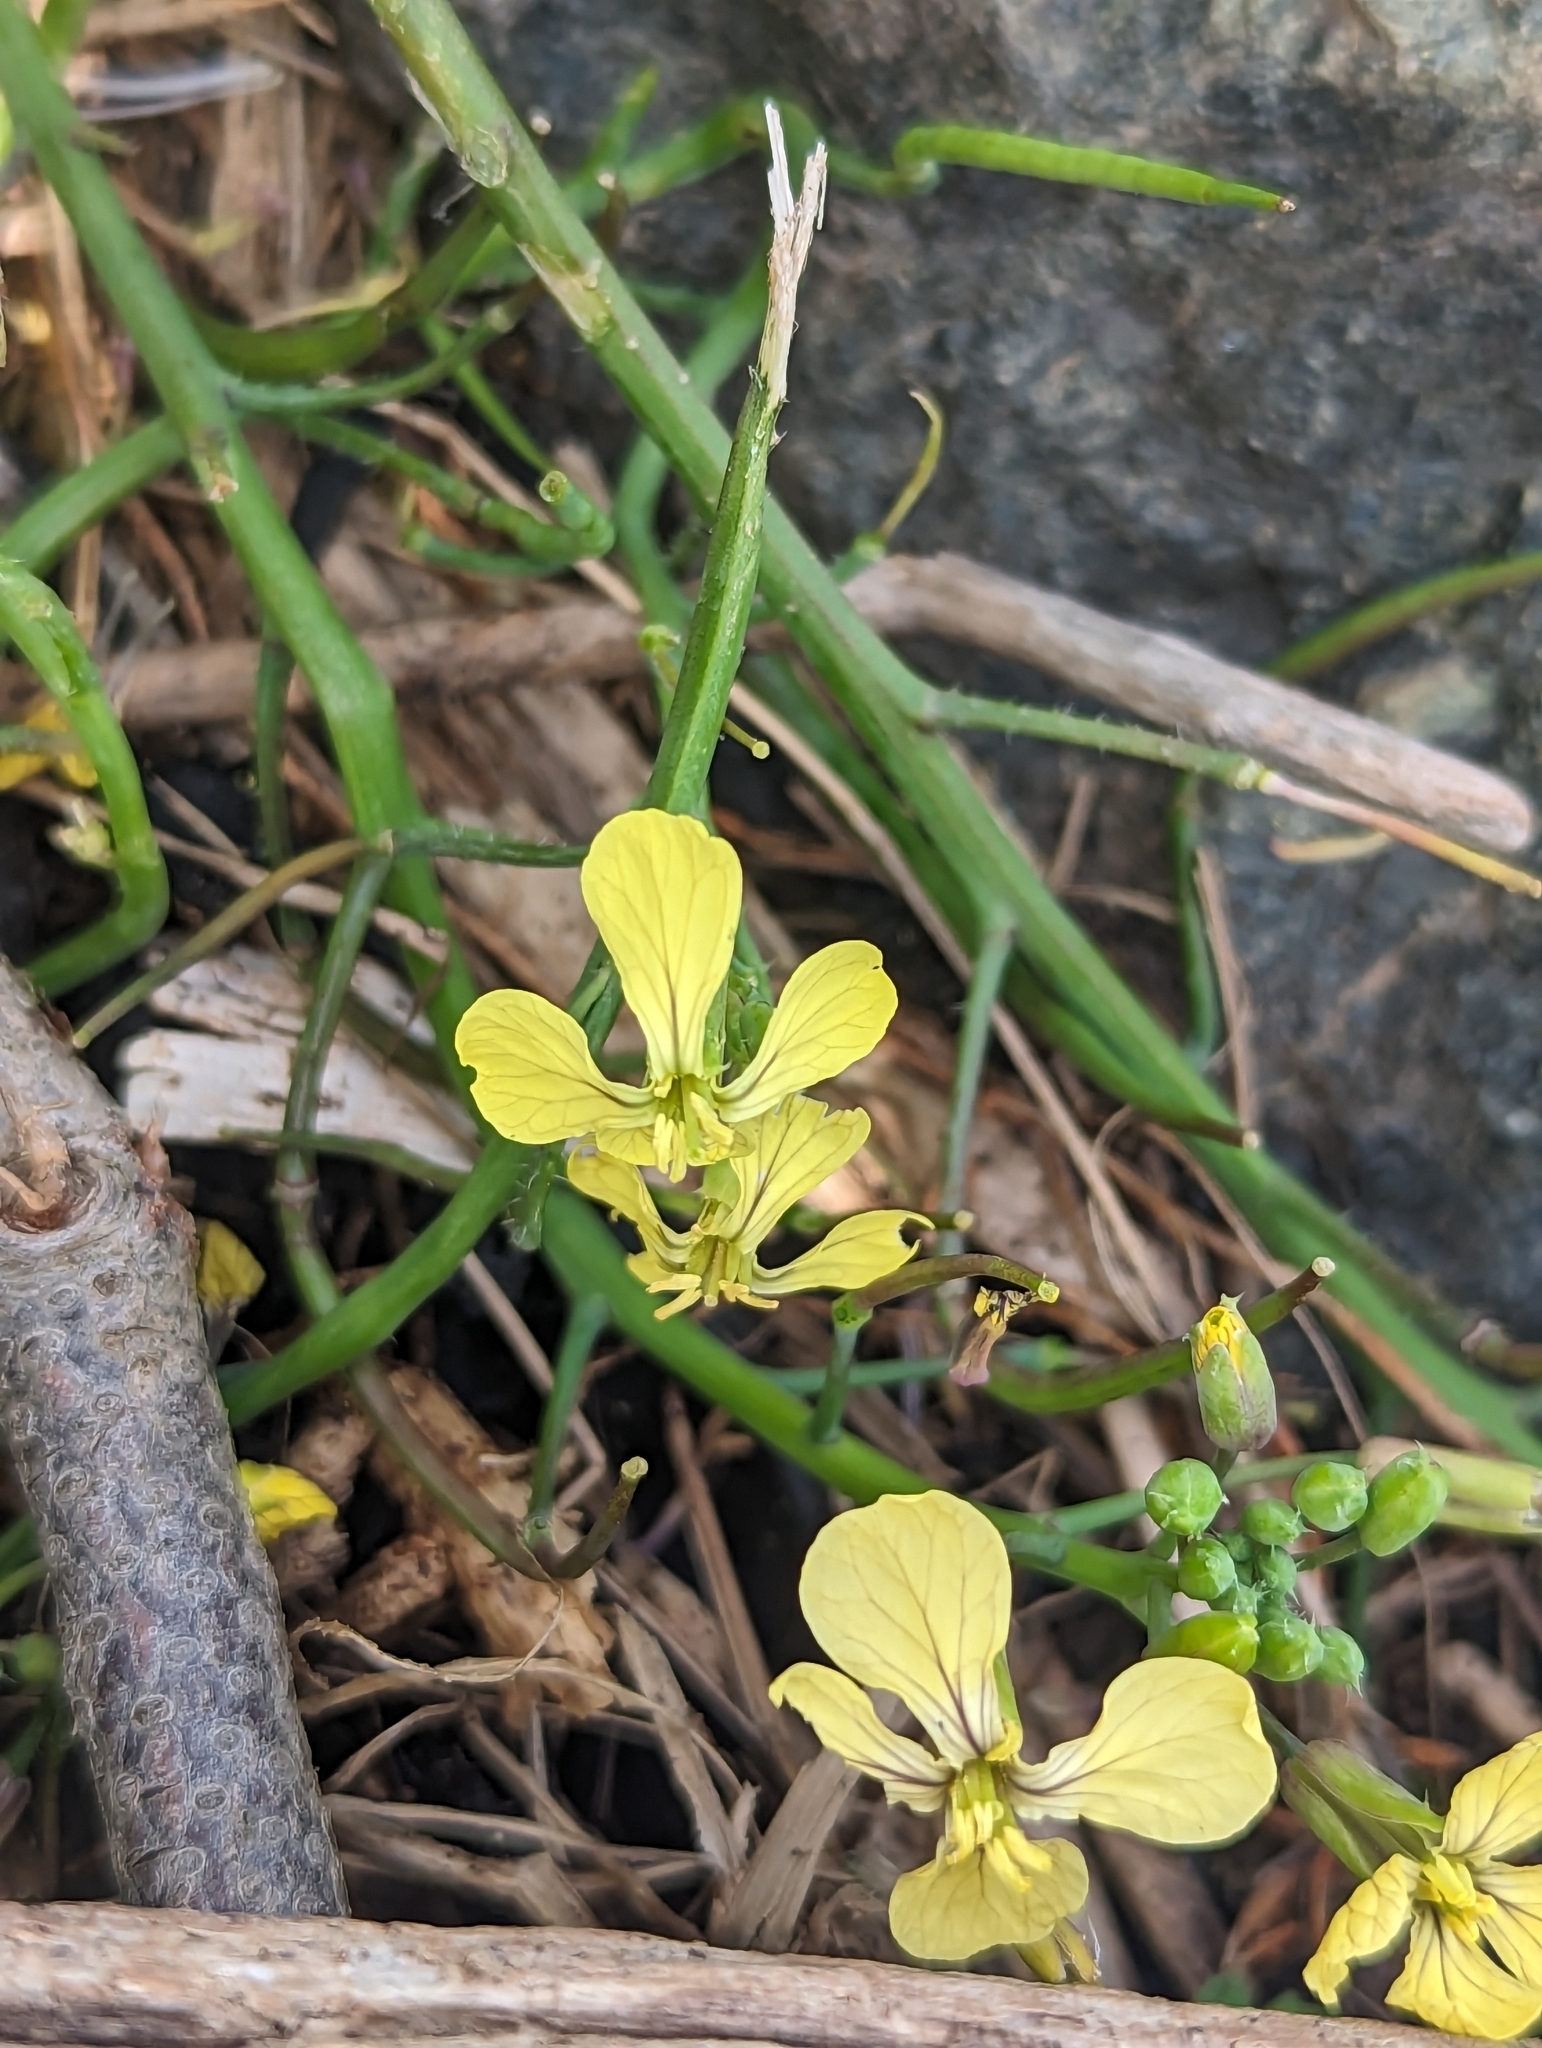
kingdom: Plantae
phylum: Tracheophyta
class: Magnoliopsida
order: Brassicales
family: Brassicaceae
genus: Raphanus
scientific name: Raphanus raphanistrum
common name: Wild radish
